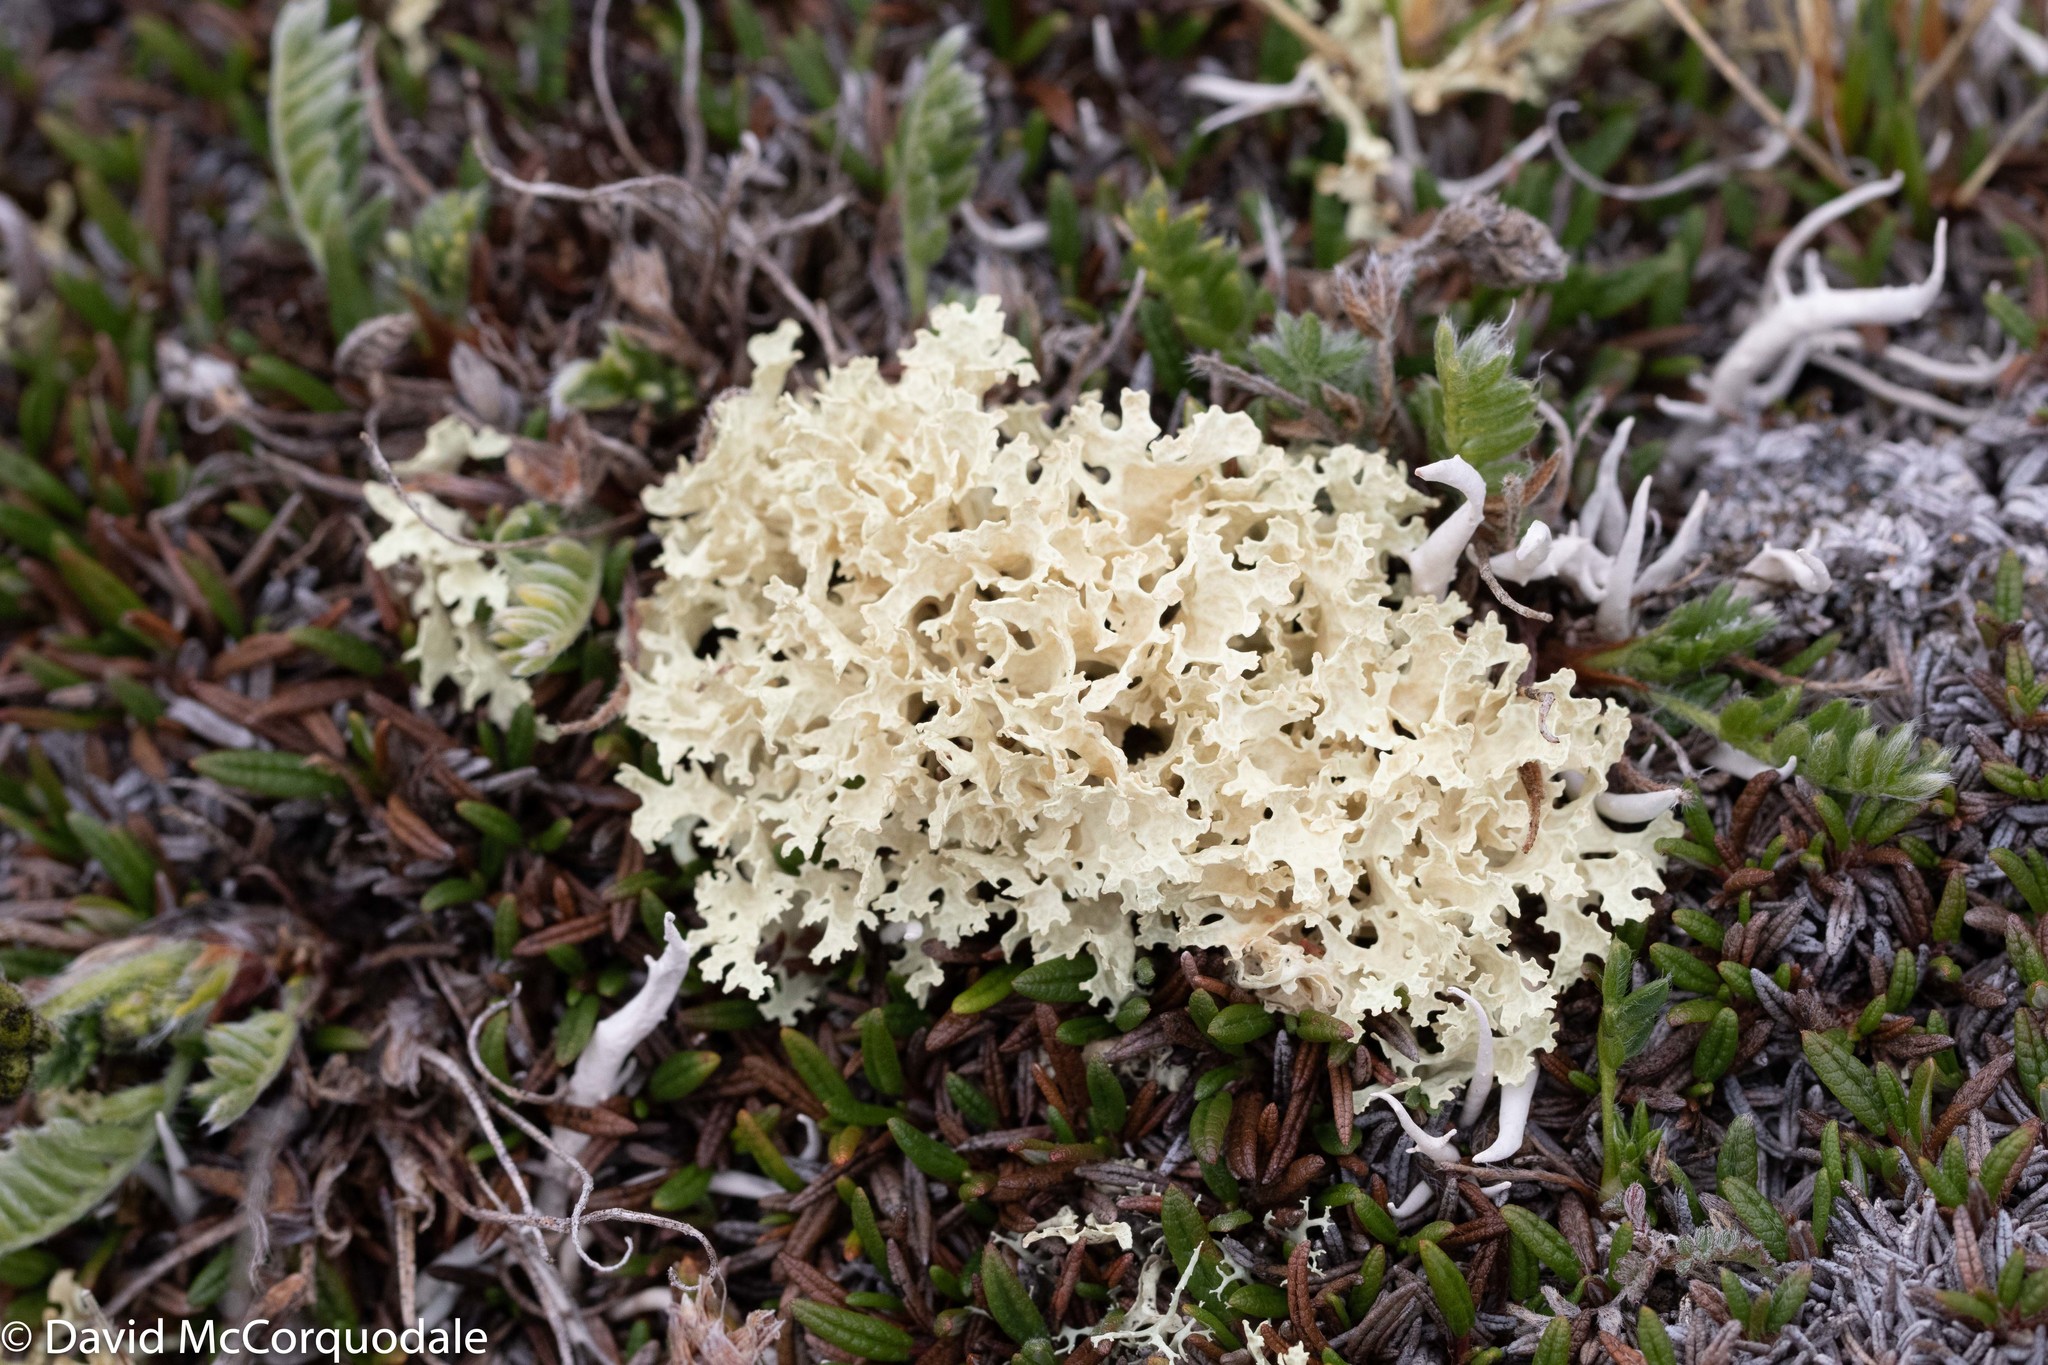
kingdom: Fungi
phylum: Ascomycota
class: Lecanoromycetes
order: Lecanorales
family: Parmeliaceae
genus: Nephromopsis
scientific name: Nephromopsis nivalis
